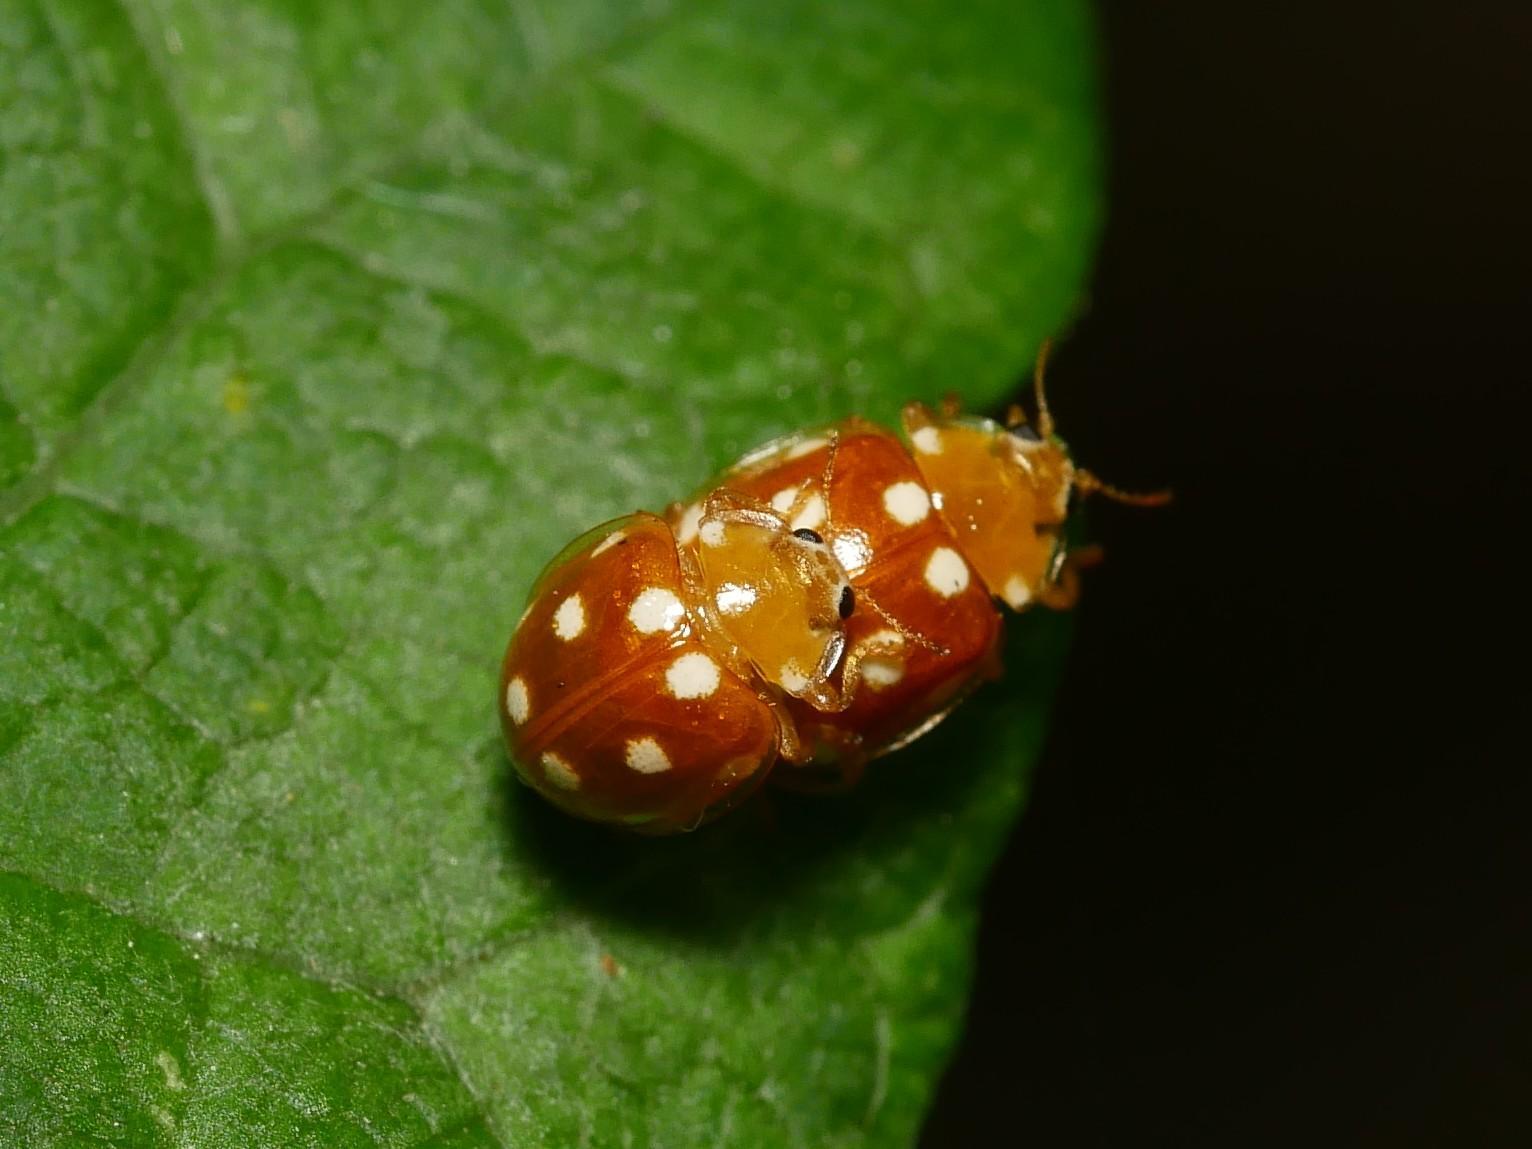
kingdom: Animalia
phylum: Arthropoda
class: Insecta
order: Coleoptera
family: Coccinellidae
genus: Vibidia
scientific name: Vibidia duodecimguttata
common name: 12-spot ladybird
